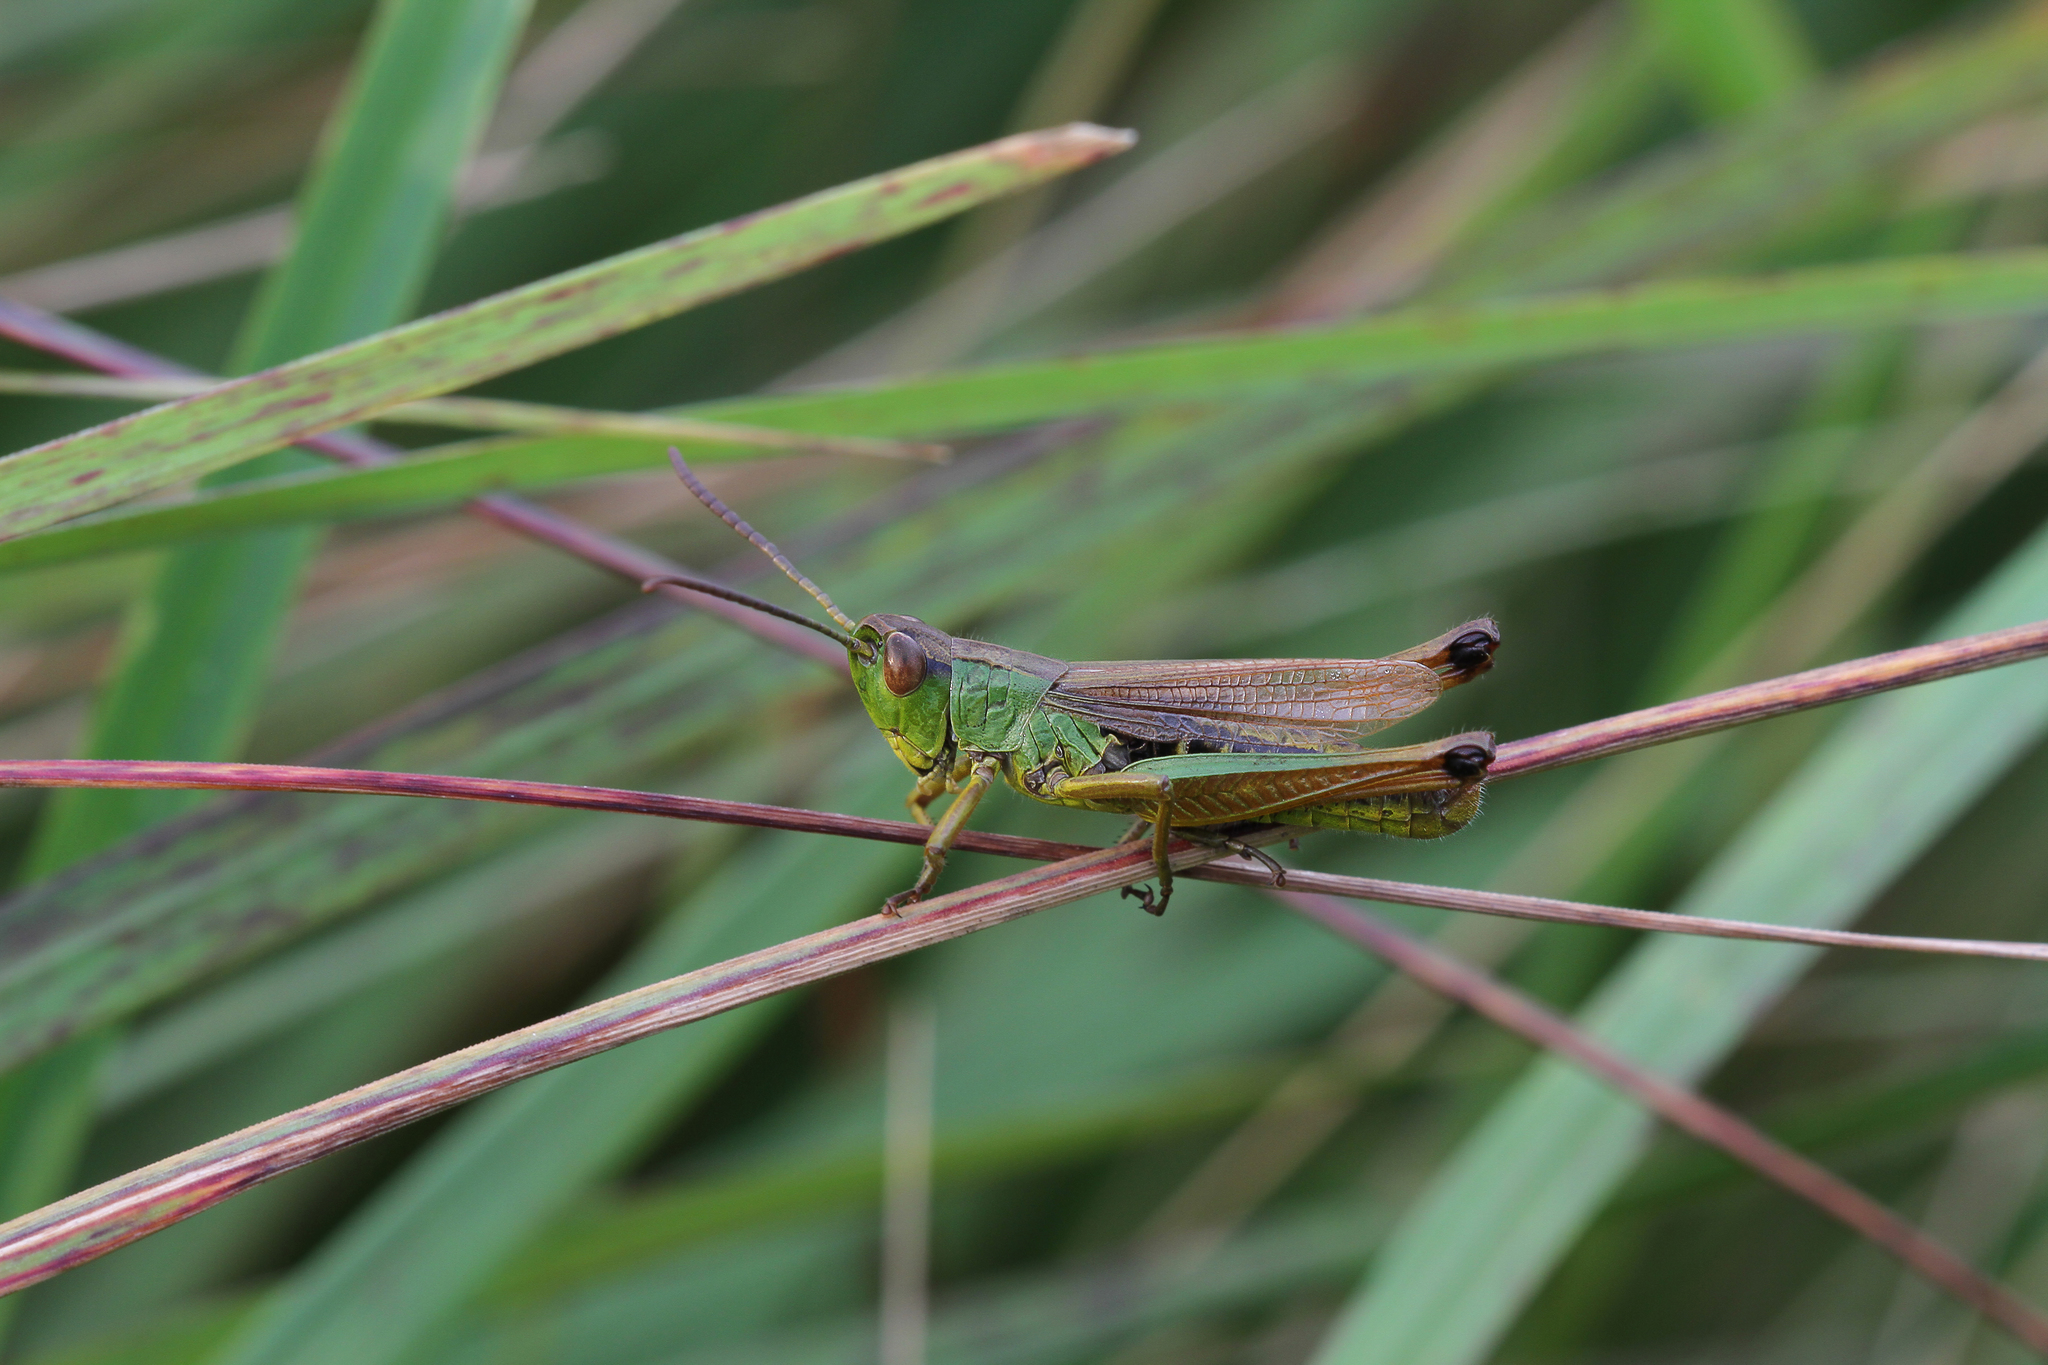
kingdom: Animalia
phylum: Arthropoda
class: Insecta
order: Orthoptera
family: Acrididae
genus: Pseudochorthippus
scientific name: Pseudochorthippus parallelus
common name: Meadow grasshopper
